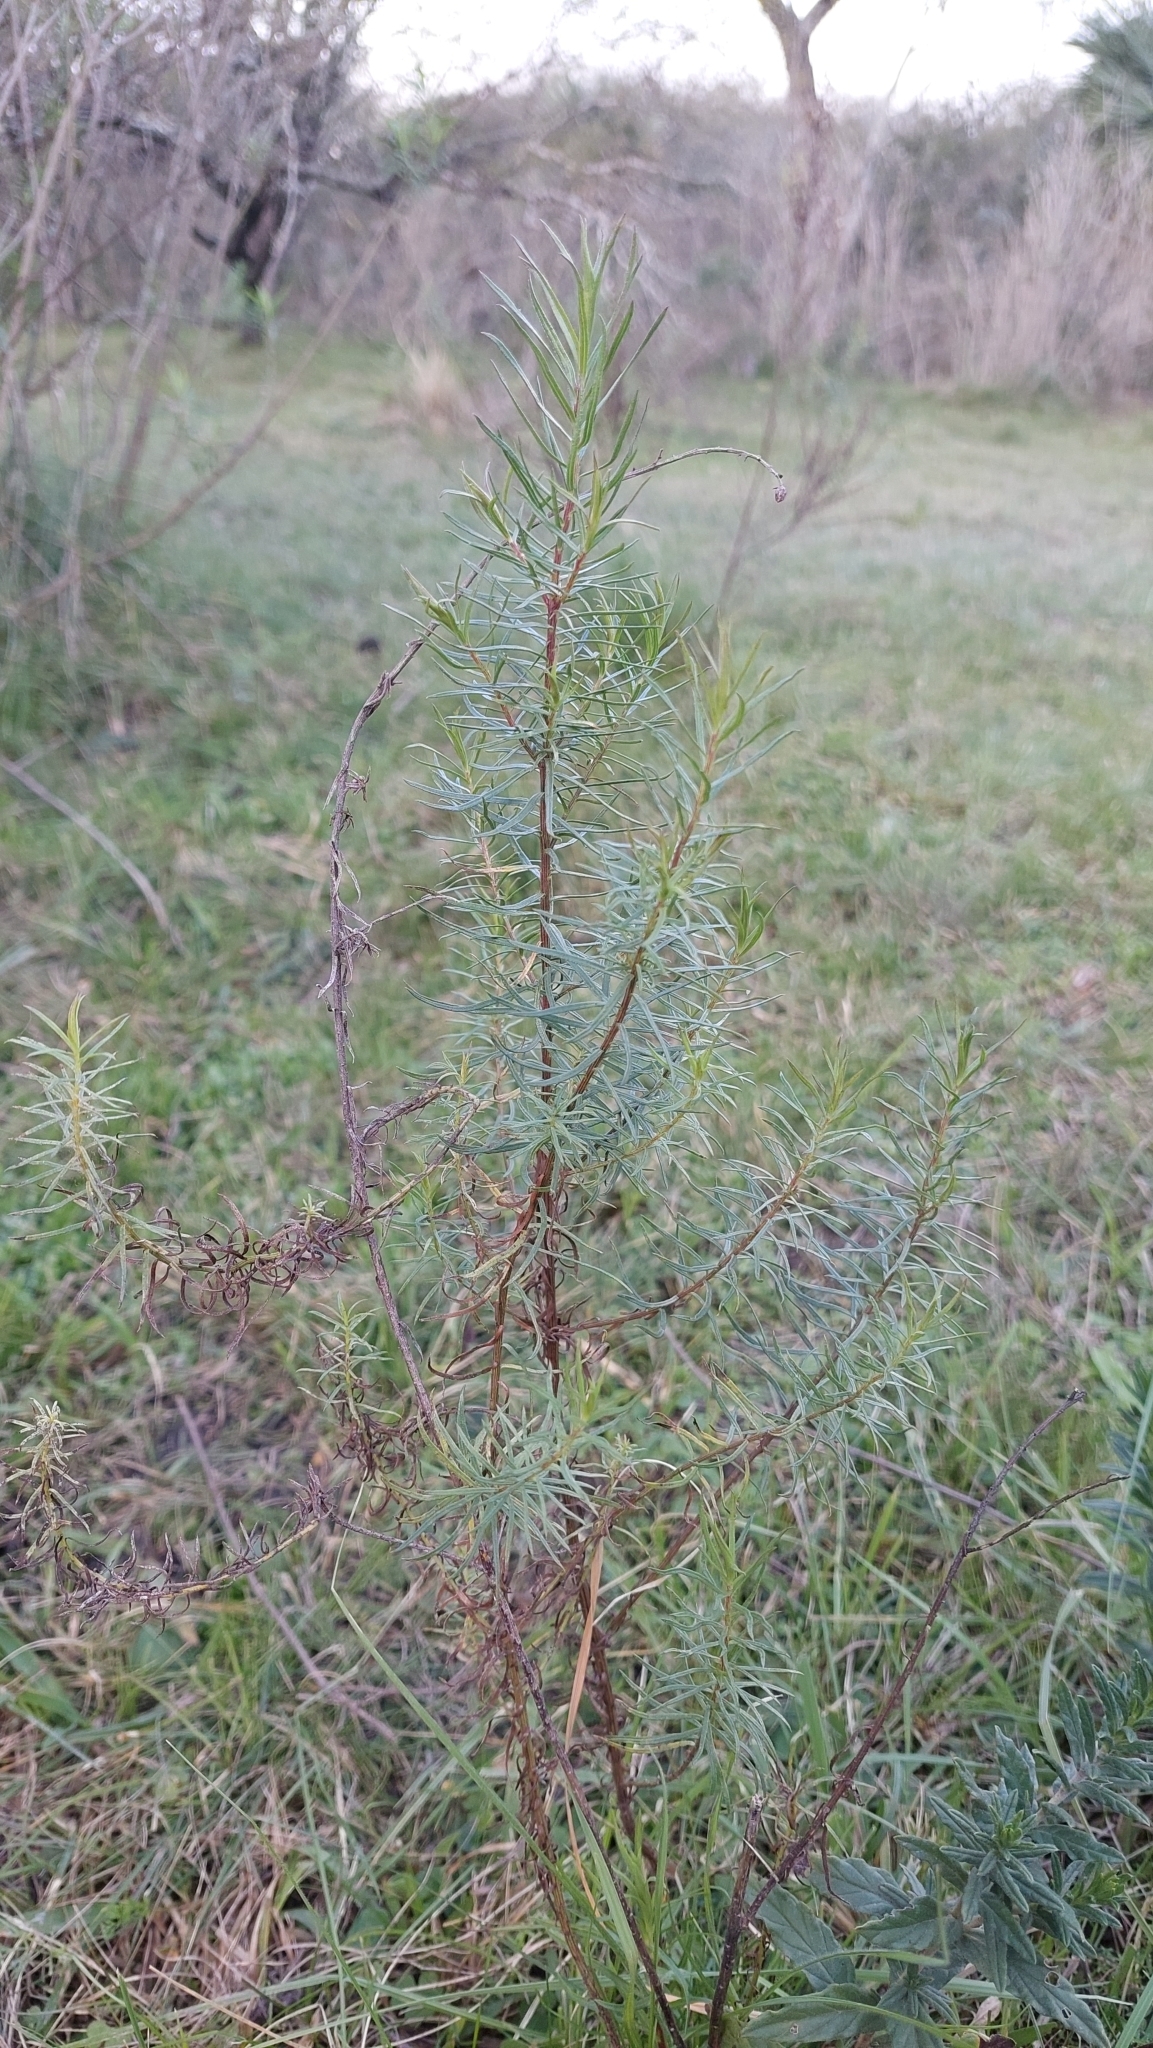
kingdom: Plantae
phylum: Tracheophyta
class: Magnoliopsida
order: Asterales
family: Asteraceae
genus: Baccharis
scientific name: Baccharis coridifolia
